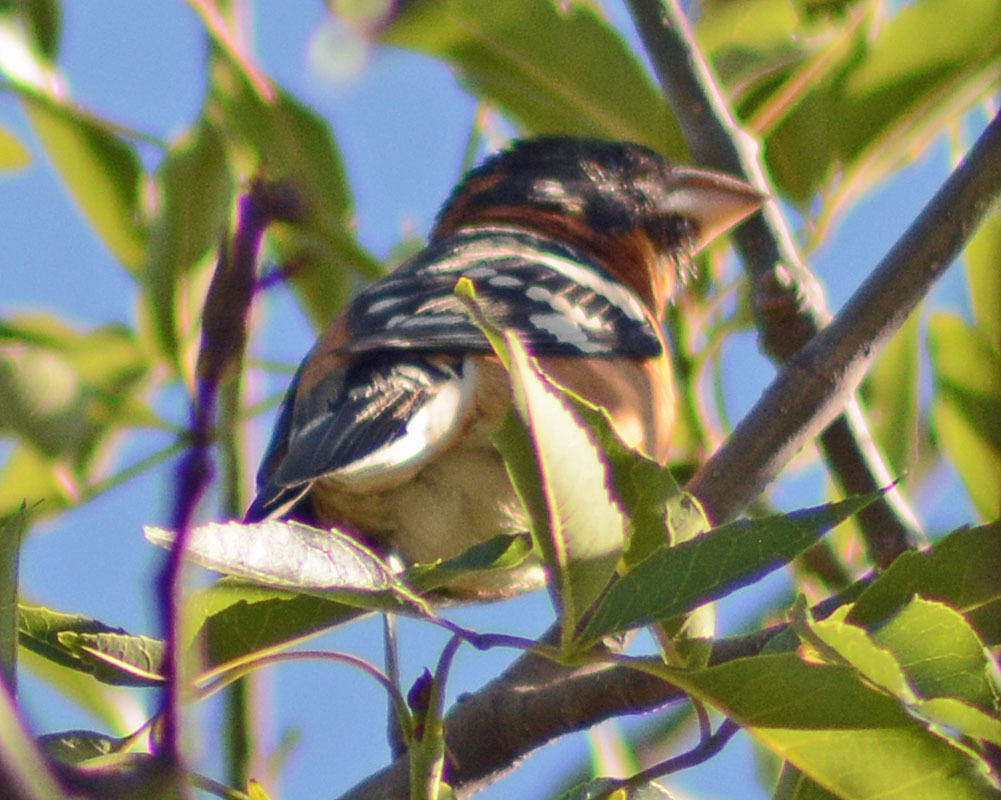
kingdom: Animalia
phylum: Chordata
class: Aves
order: Passeriformes
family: Cardinalidae
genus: Pheucticus
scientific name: Pheucticus melanocephalus
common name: Black-headed grosbeak
